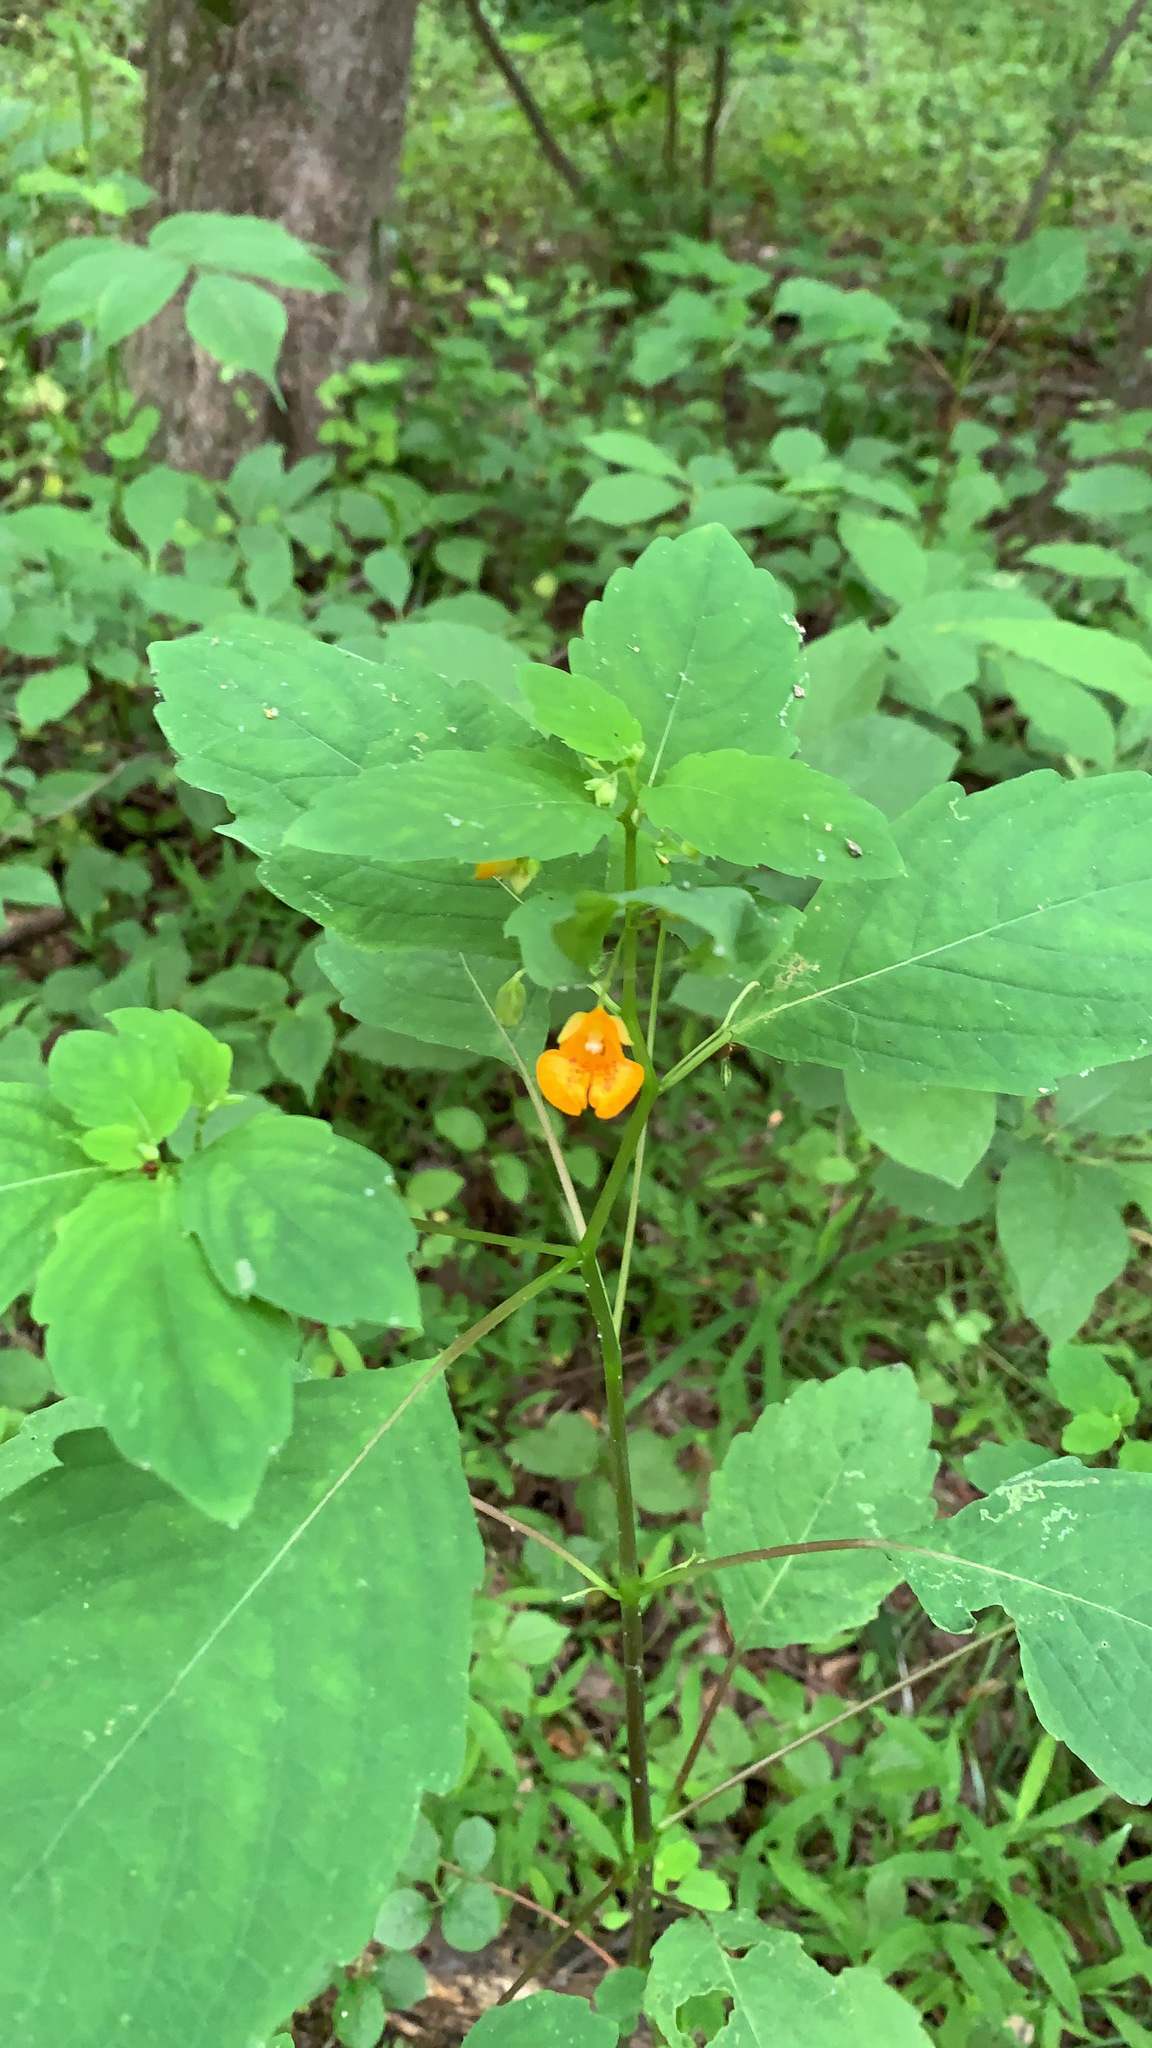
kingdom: Plantae
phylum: Tracheophyta
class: Magnoliopsida
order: Ericales
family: Balsaminaceae
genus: Impatiens
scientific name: Impatiens capensis
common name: Orange balsam
